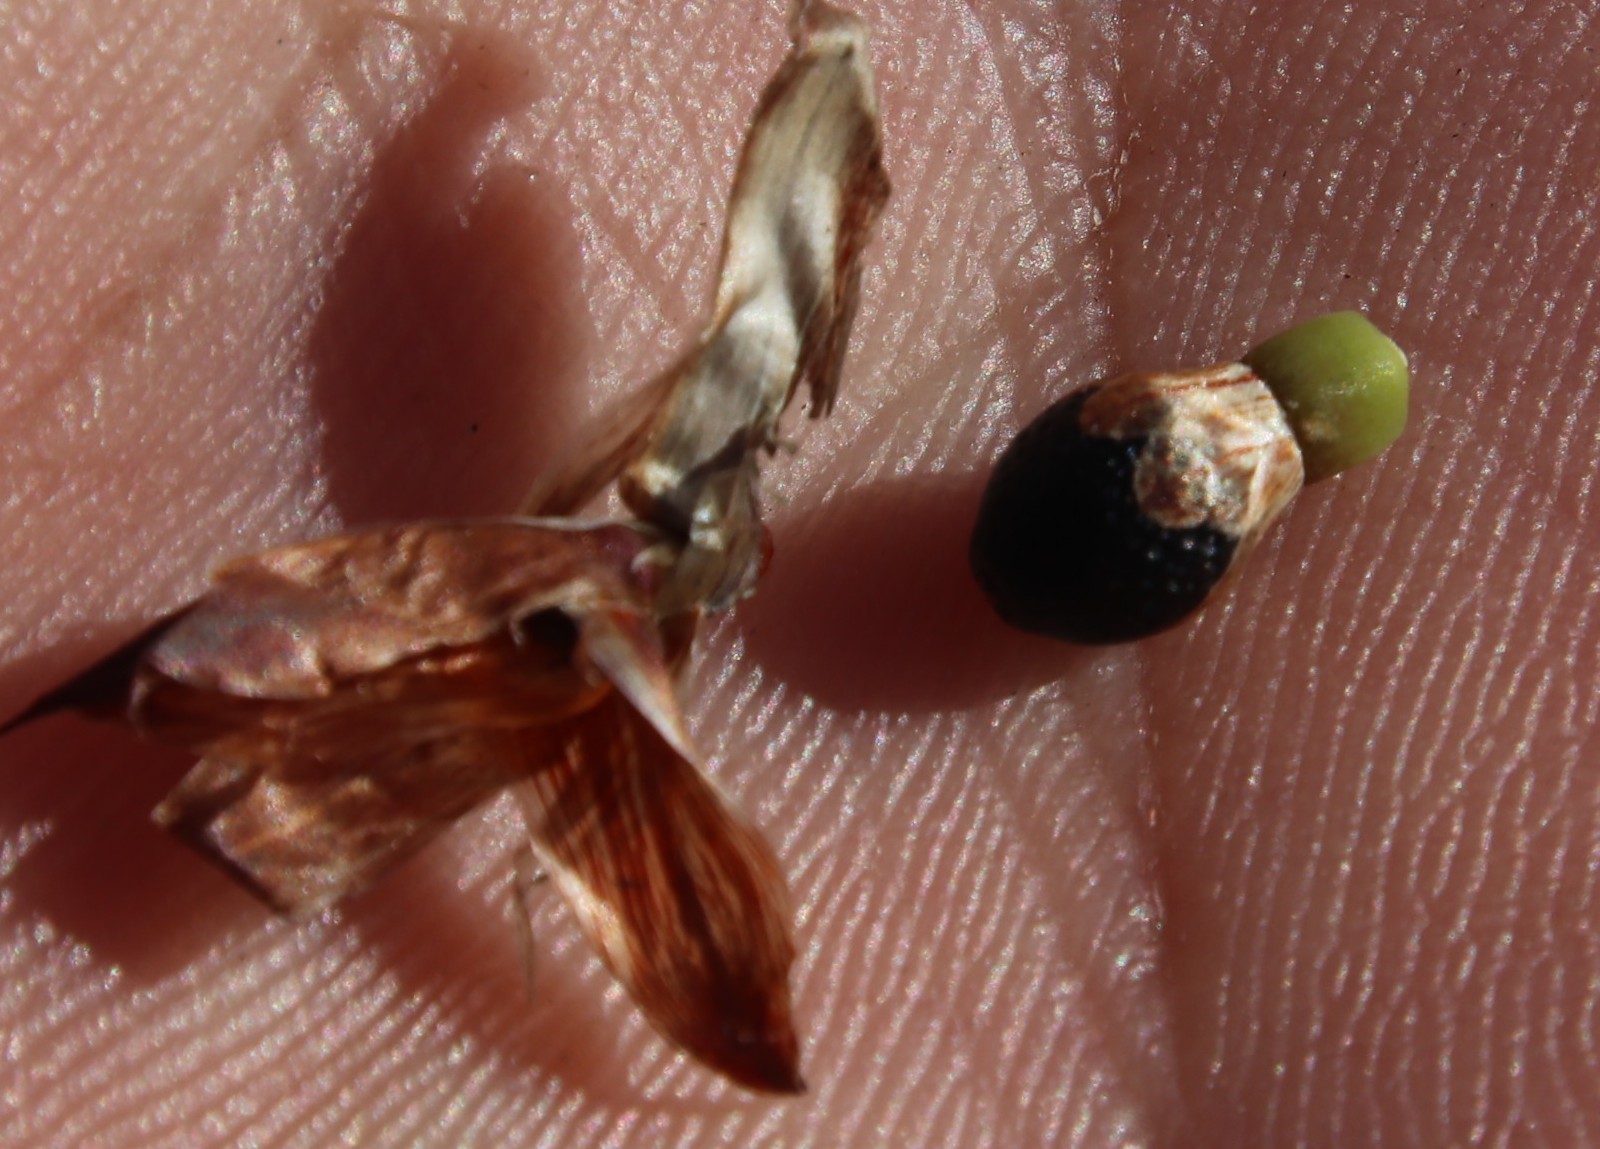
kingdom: Plantae
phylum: Tracheophyta
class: Liliopsida
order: Poales
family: Restionaceae
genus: Willdenowia
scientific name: Willdenowia sulcata
